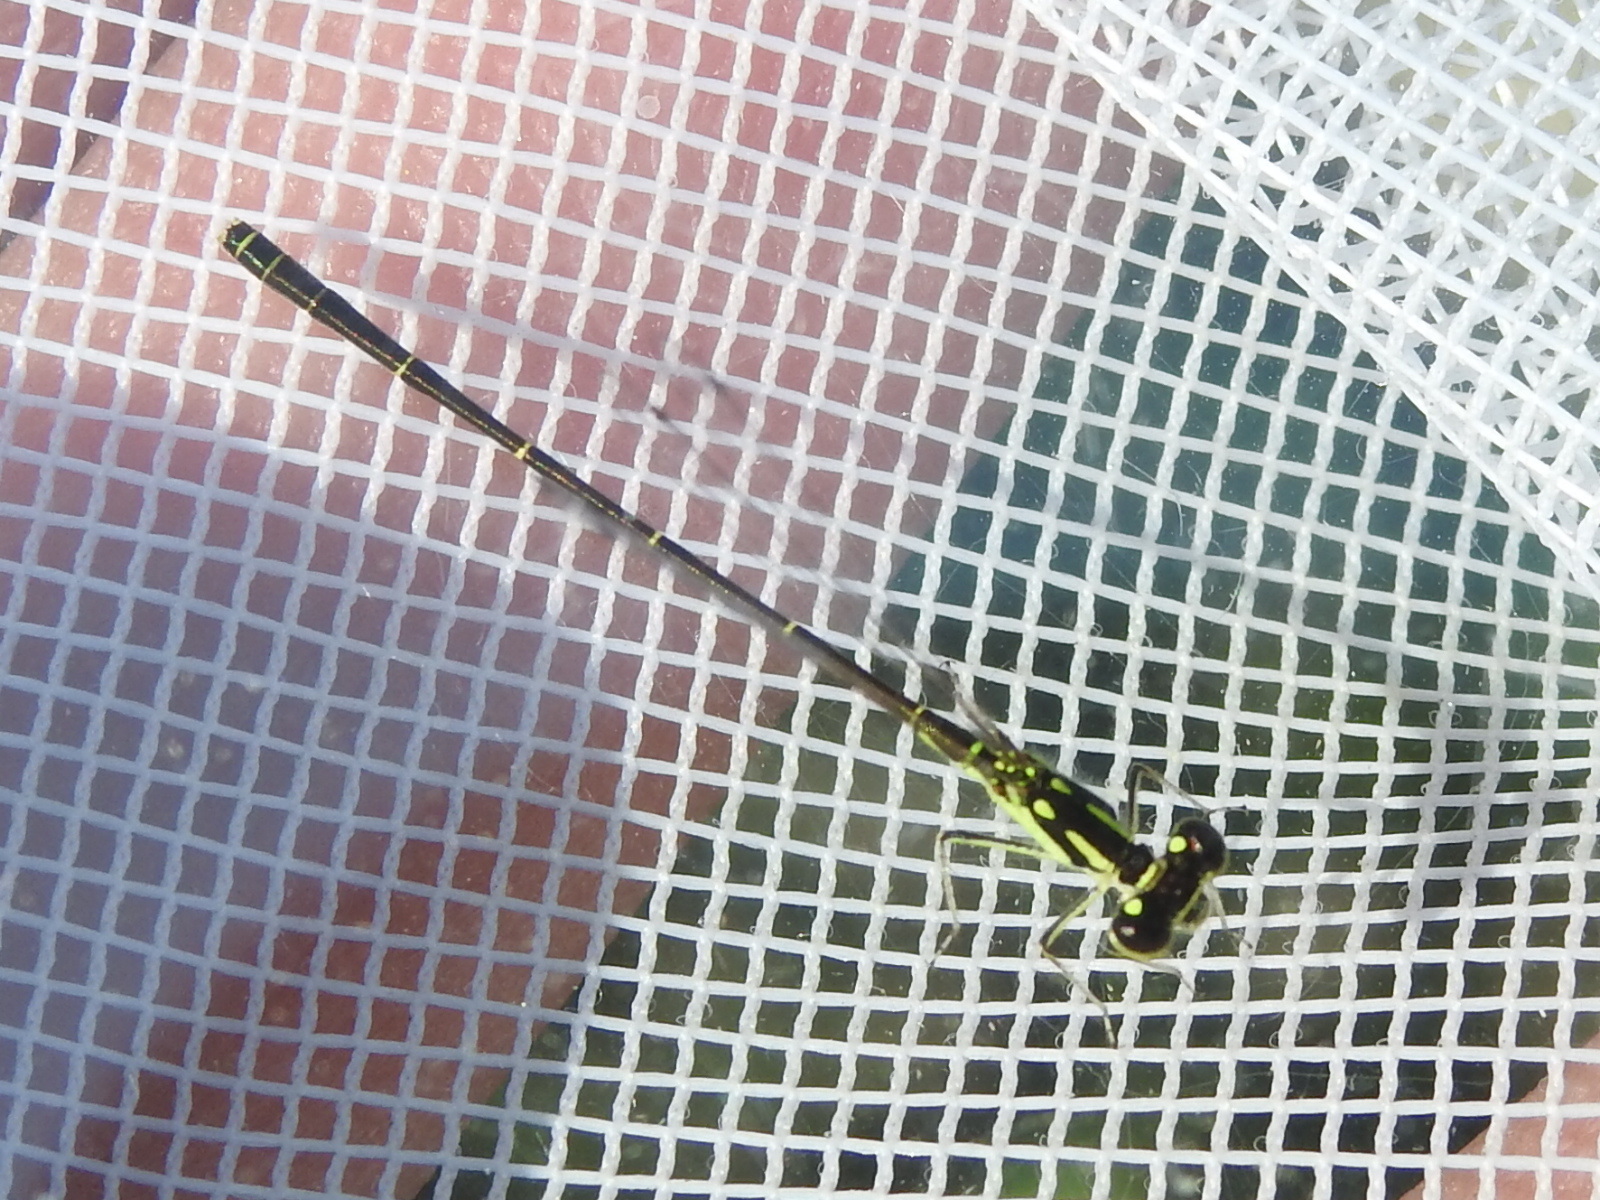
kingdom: Animalia
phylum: Arthropoda
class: Insecta
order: Odonata
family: Coenagrionidae
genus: Ischnura
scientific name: Ischnura posita
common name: Fragile forktail
